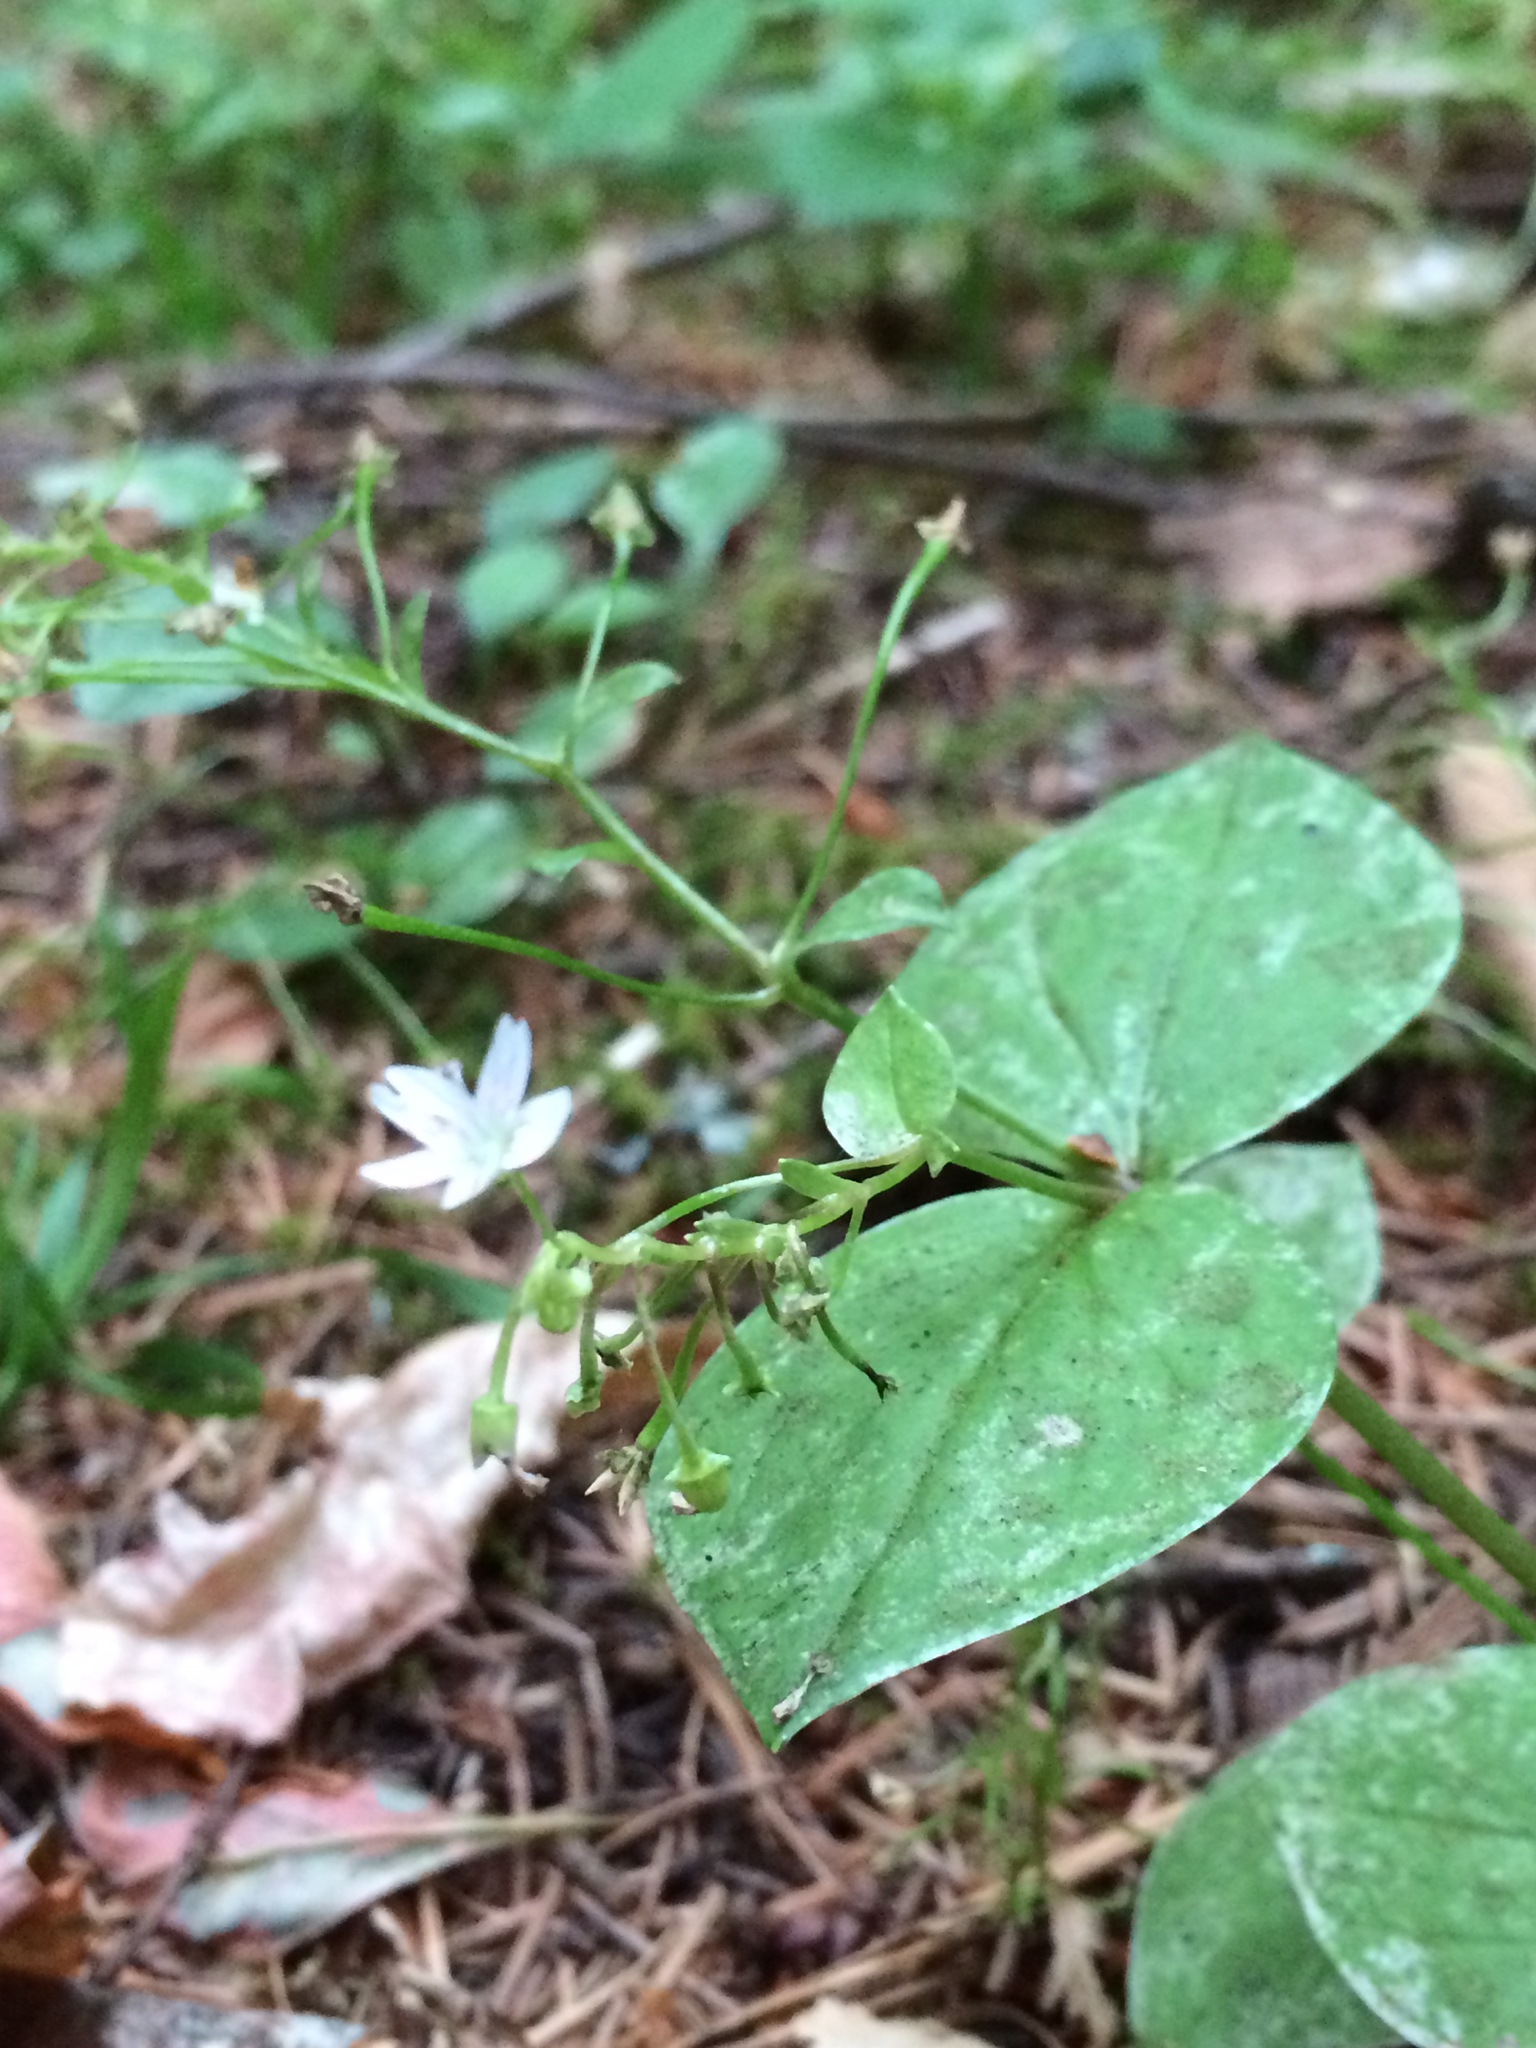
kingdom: Plantae
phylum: Tracheophyta
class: Magnoliopsida
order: Caryophyllales
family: Montiaceae
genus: Claytonia
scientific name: Claytonia sibirica
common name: Pink purslane
